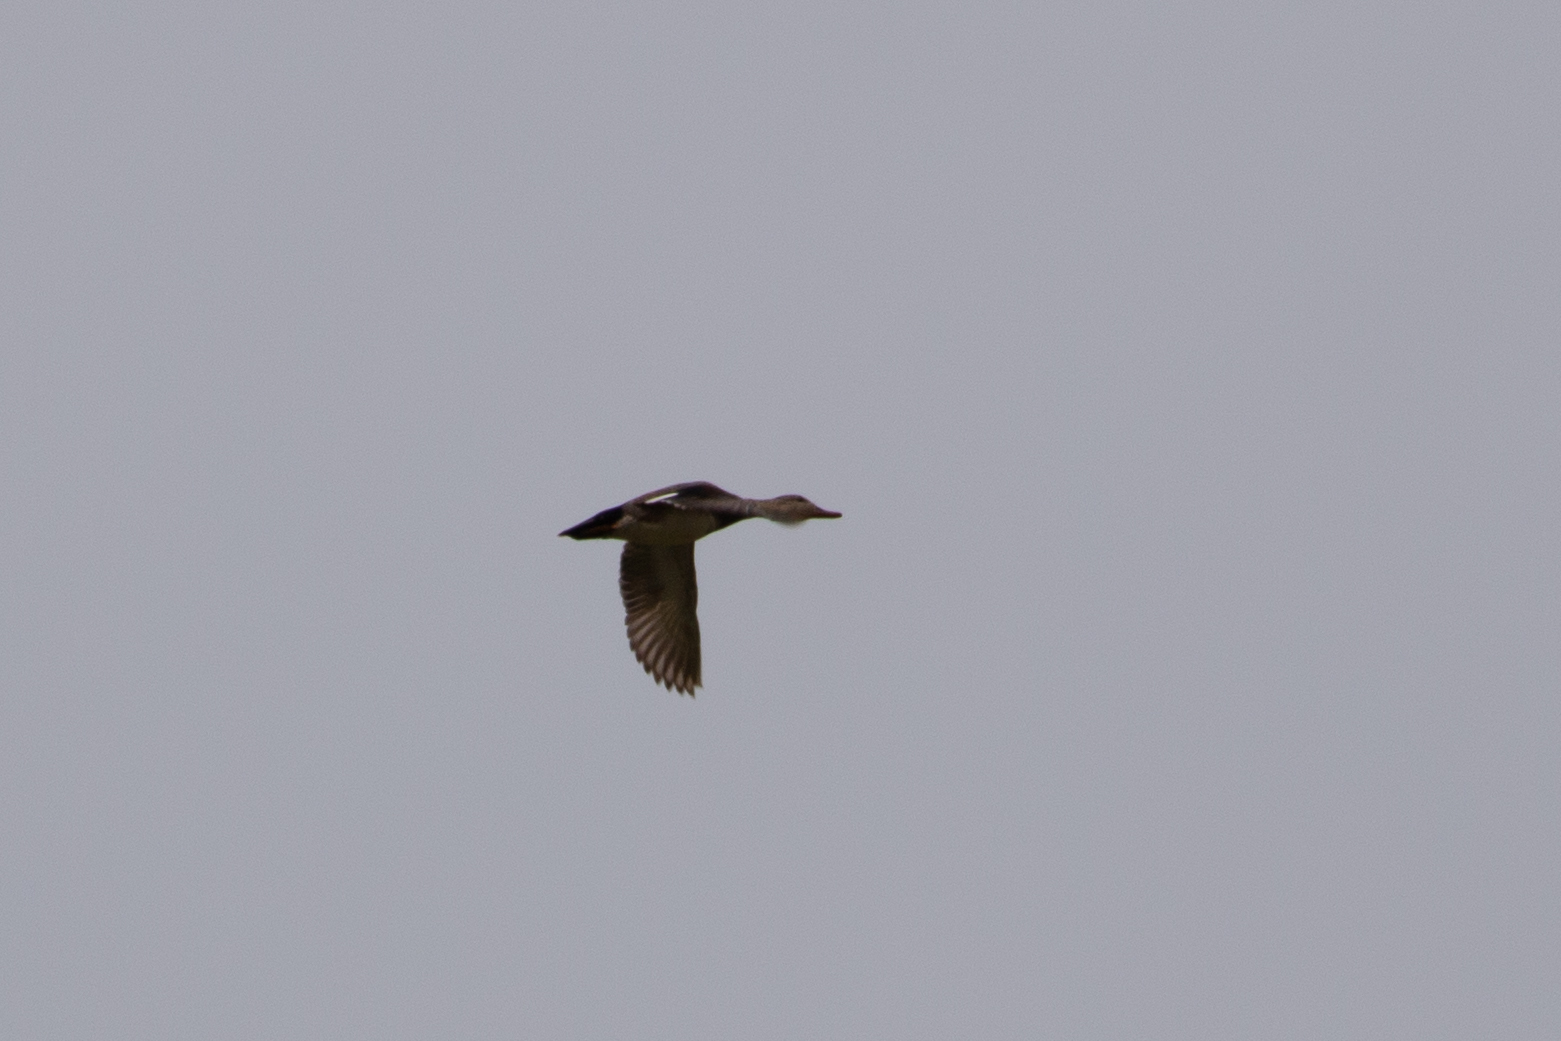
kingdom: Animalia
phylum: Chordata
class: Aves
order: Anseriformes
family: Anatidae
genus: Mareca
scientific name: Mareca strepera
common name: Gadwall
